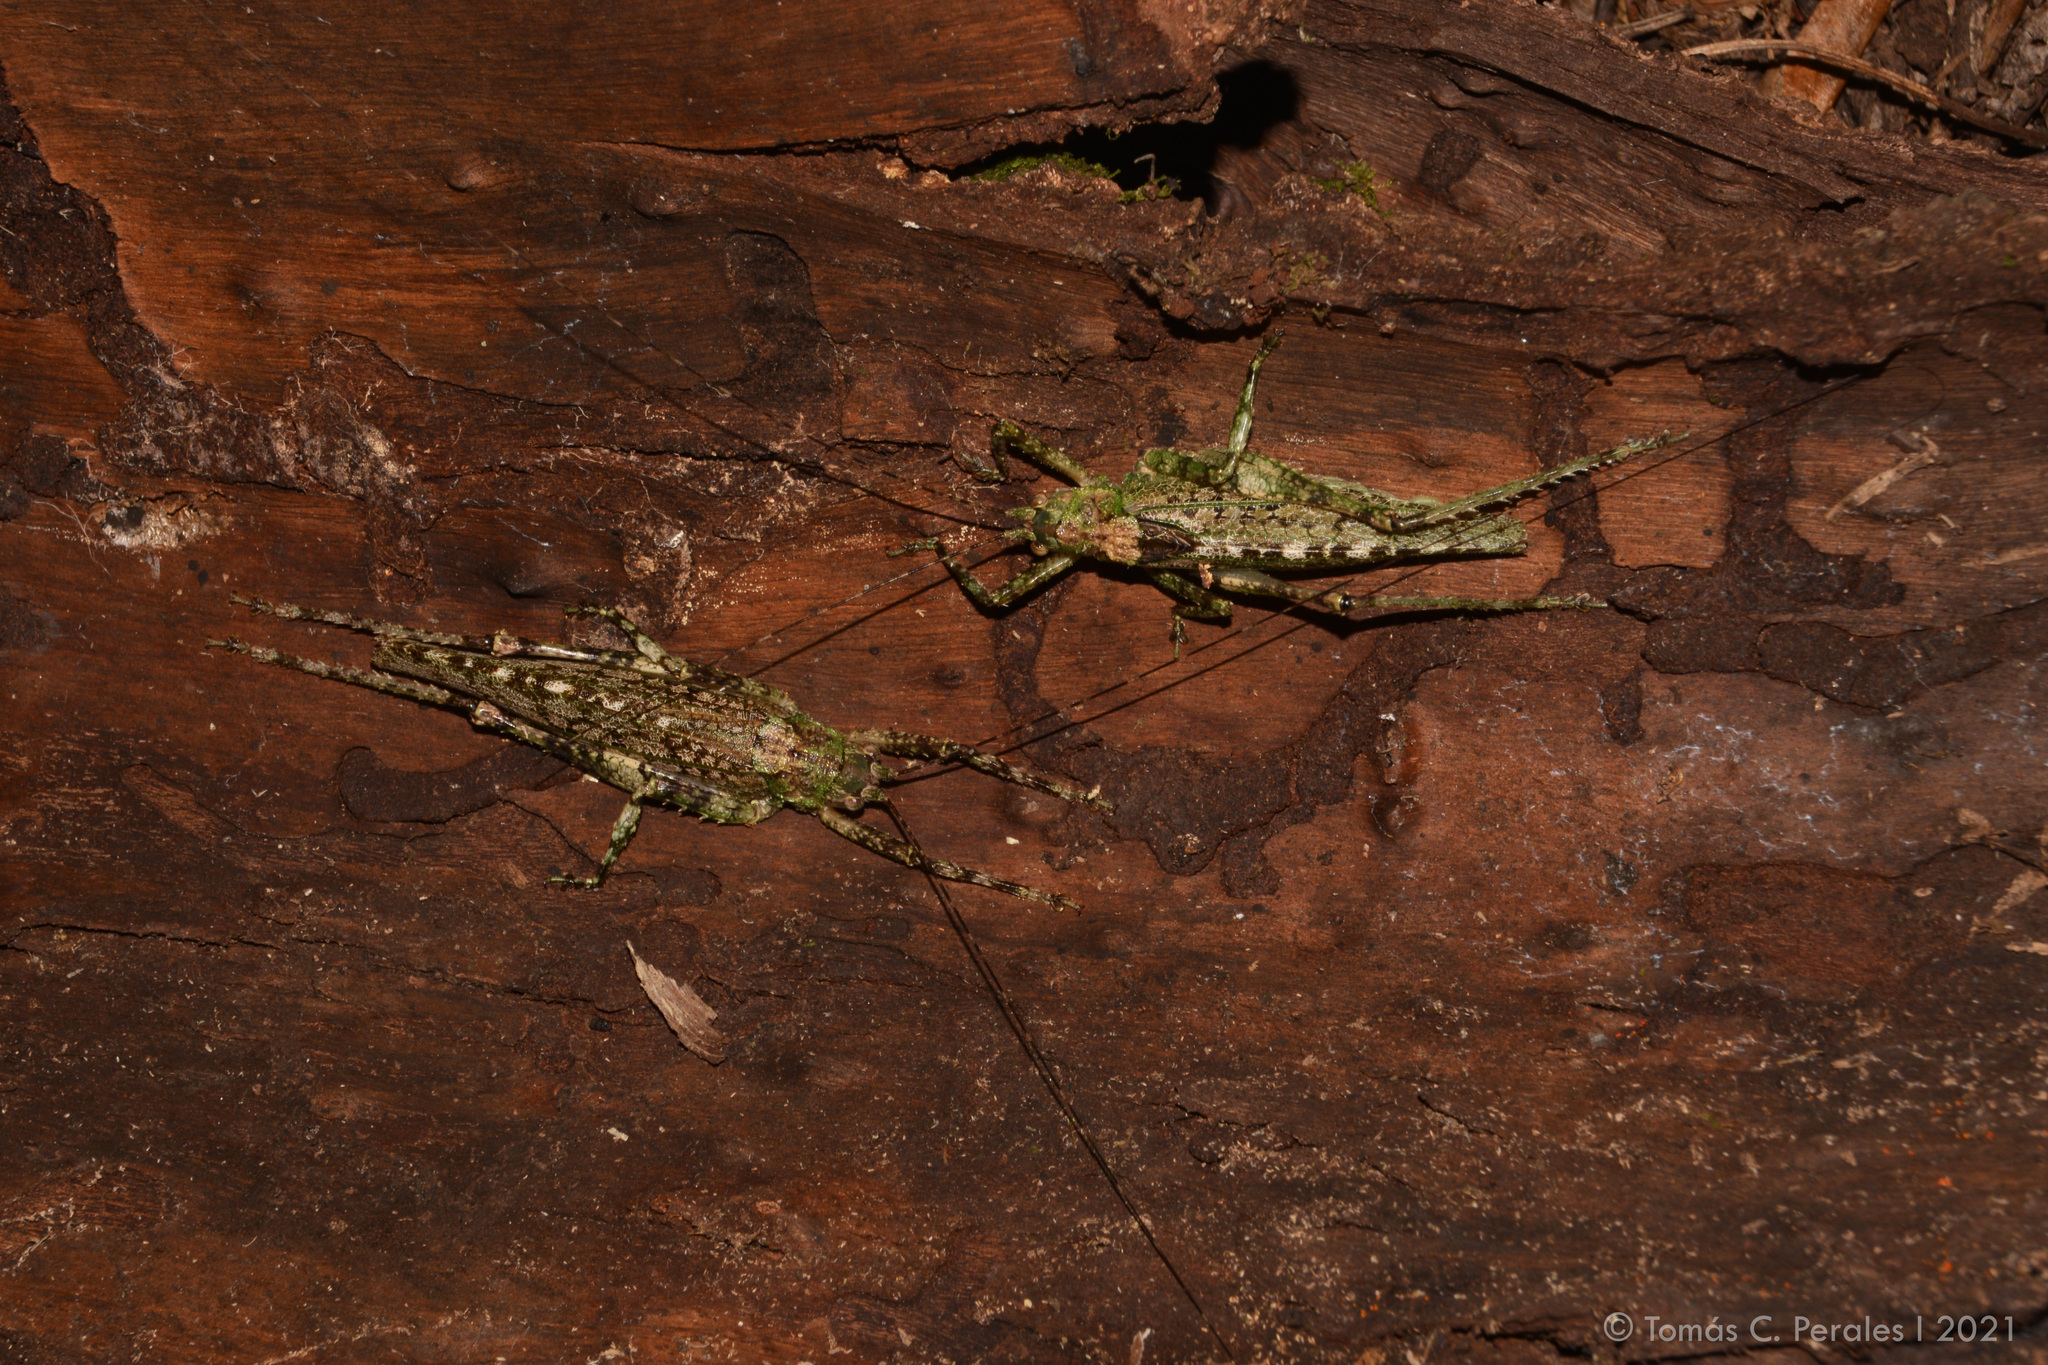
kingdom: Animalia
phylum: Arthropoda
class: Insecta
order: Orthoptera
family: Tettigoniidae
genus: Gongrocnemis
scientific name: Gongrocnemis hilaris
